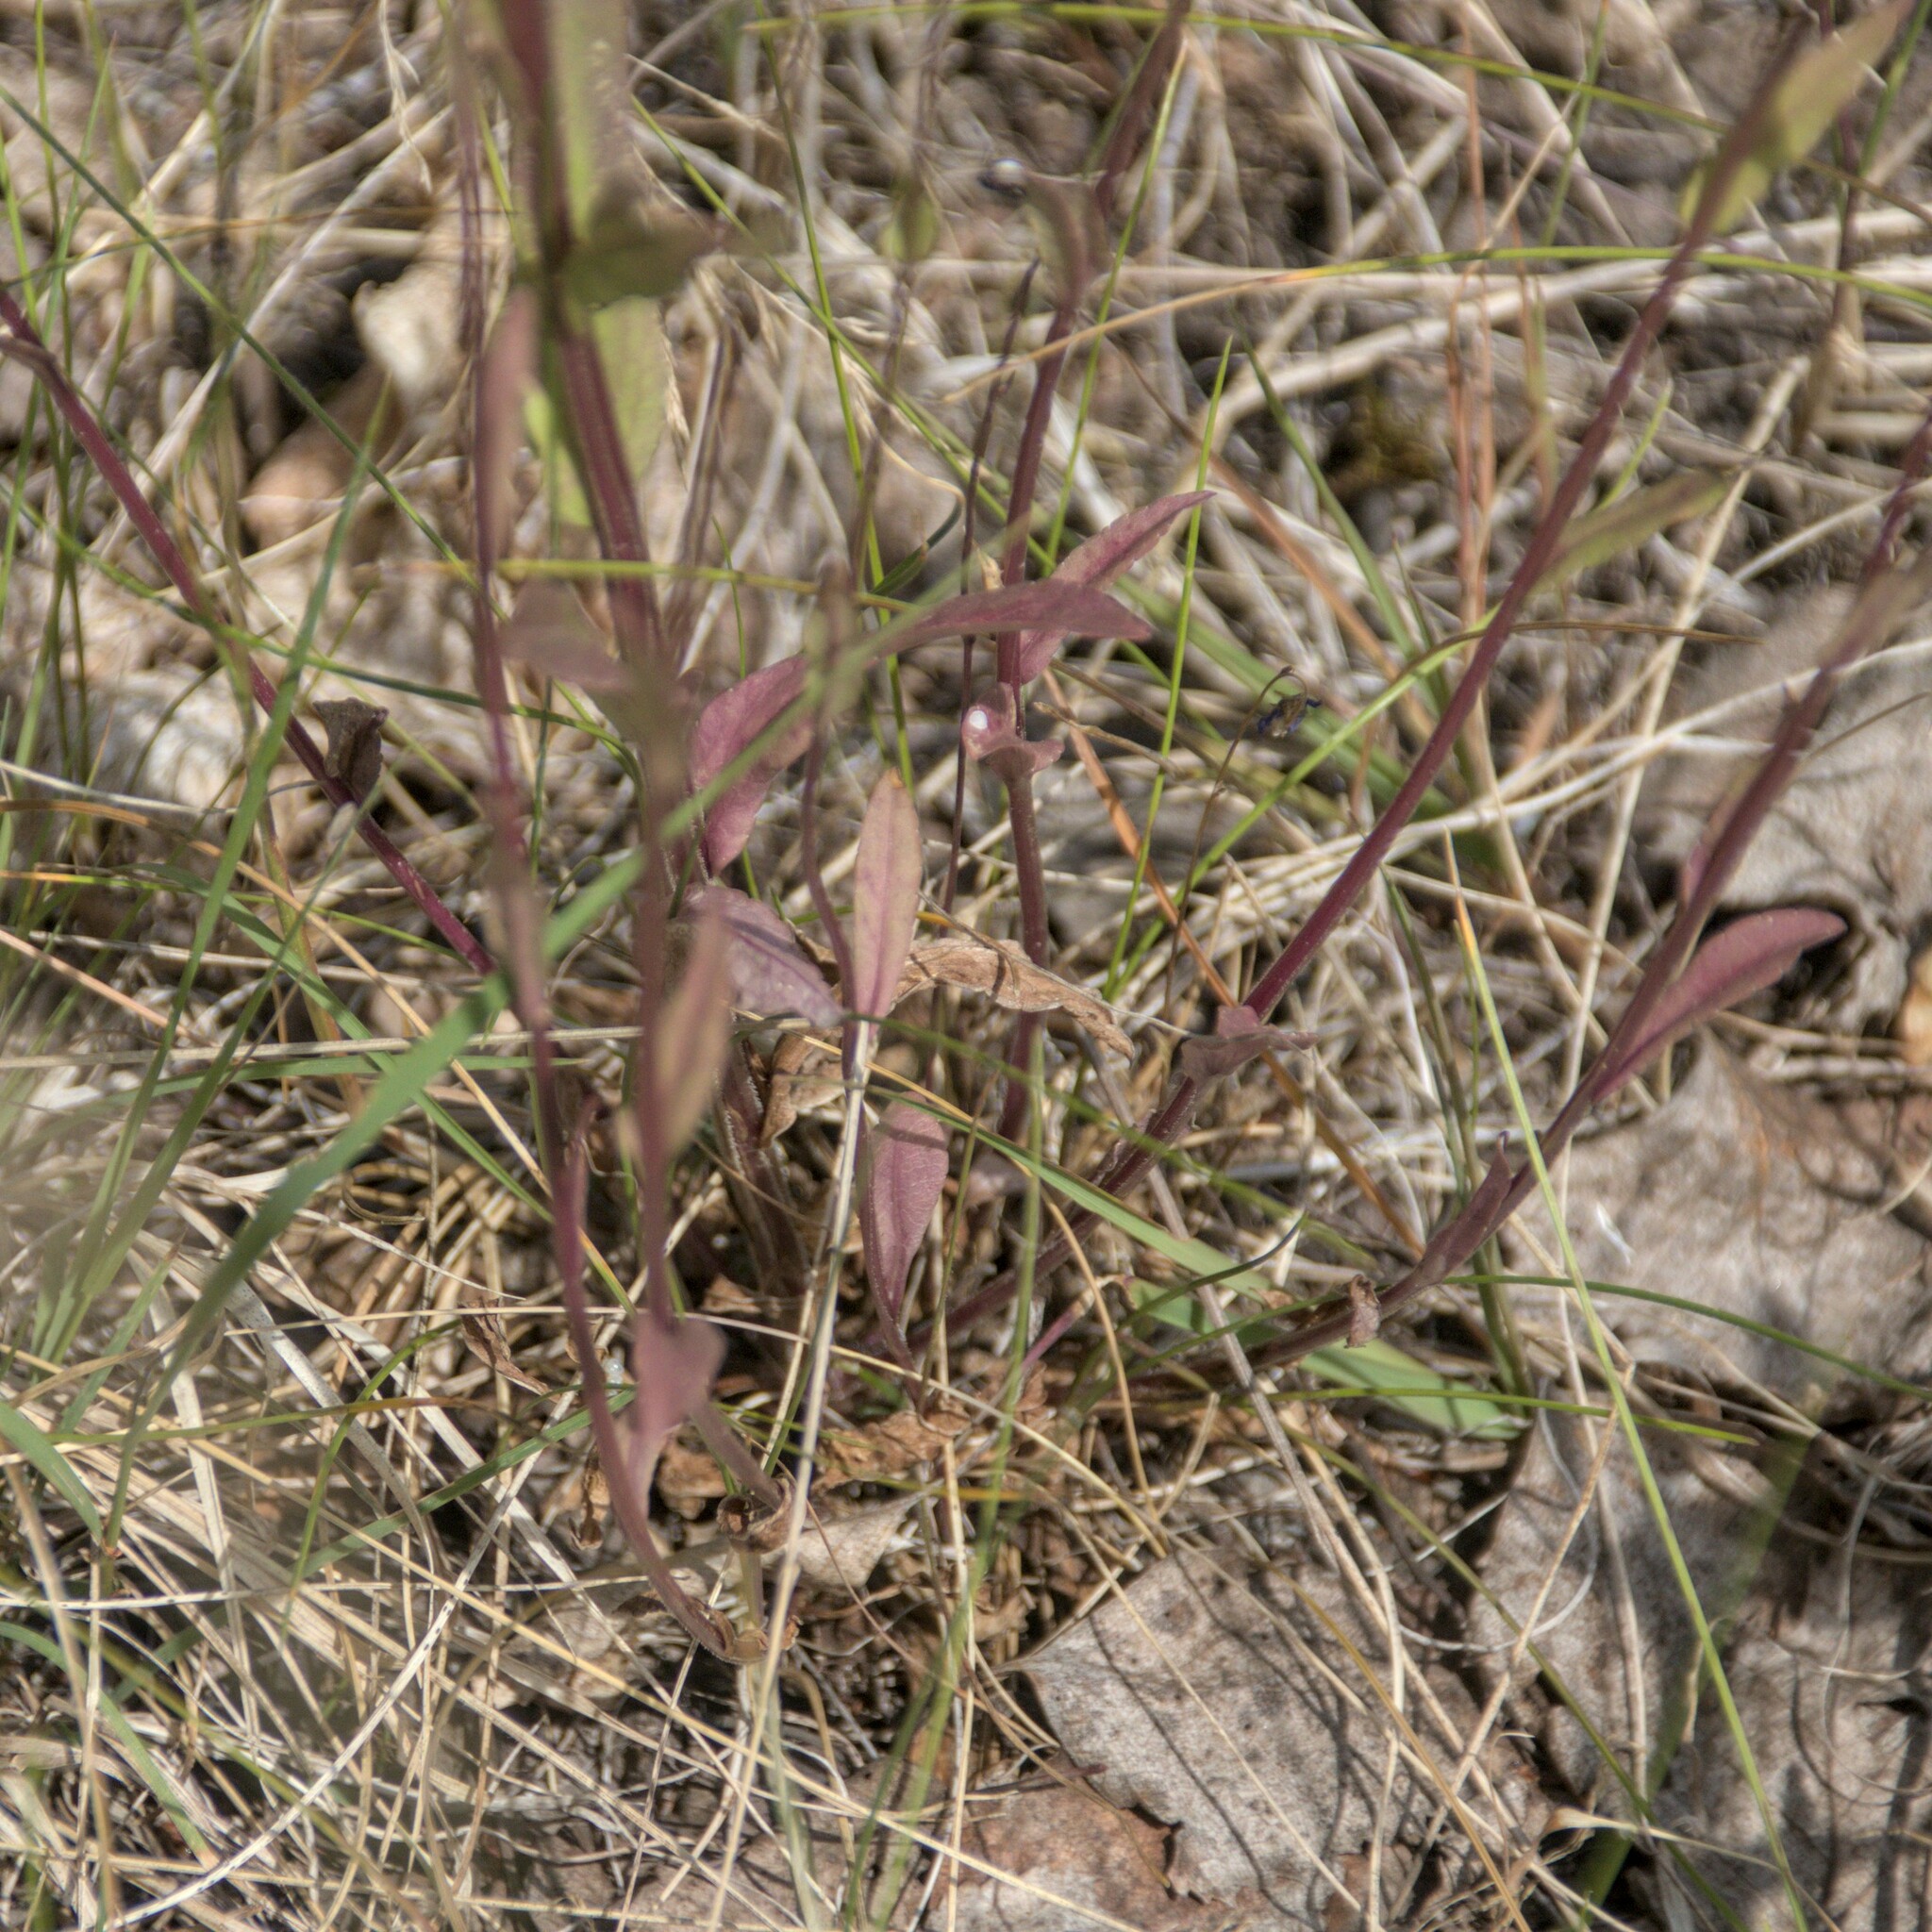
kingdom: Plantae
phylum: Tracheophyta
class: Magnoliopsida
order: Asterales
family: Campanulaceae
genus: Campanula
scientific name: Campanula patula
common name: Spreading bellflower
